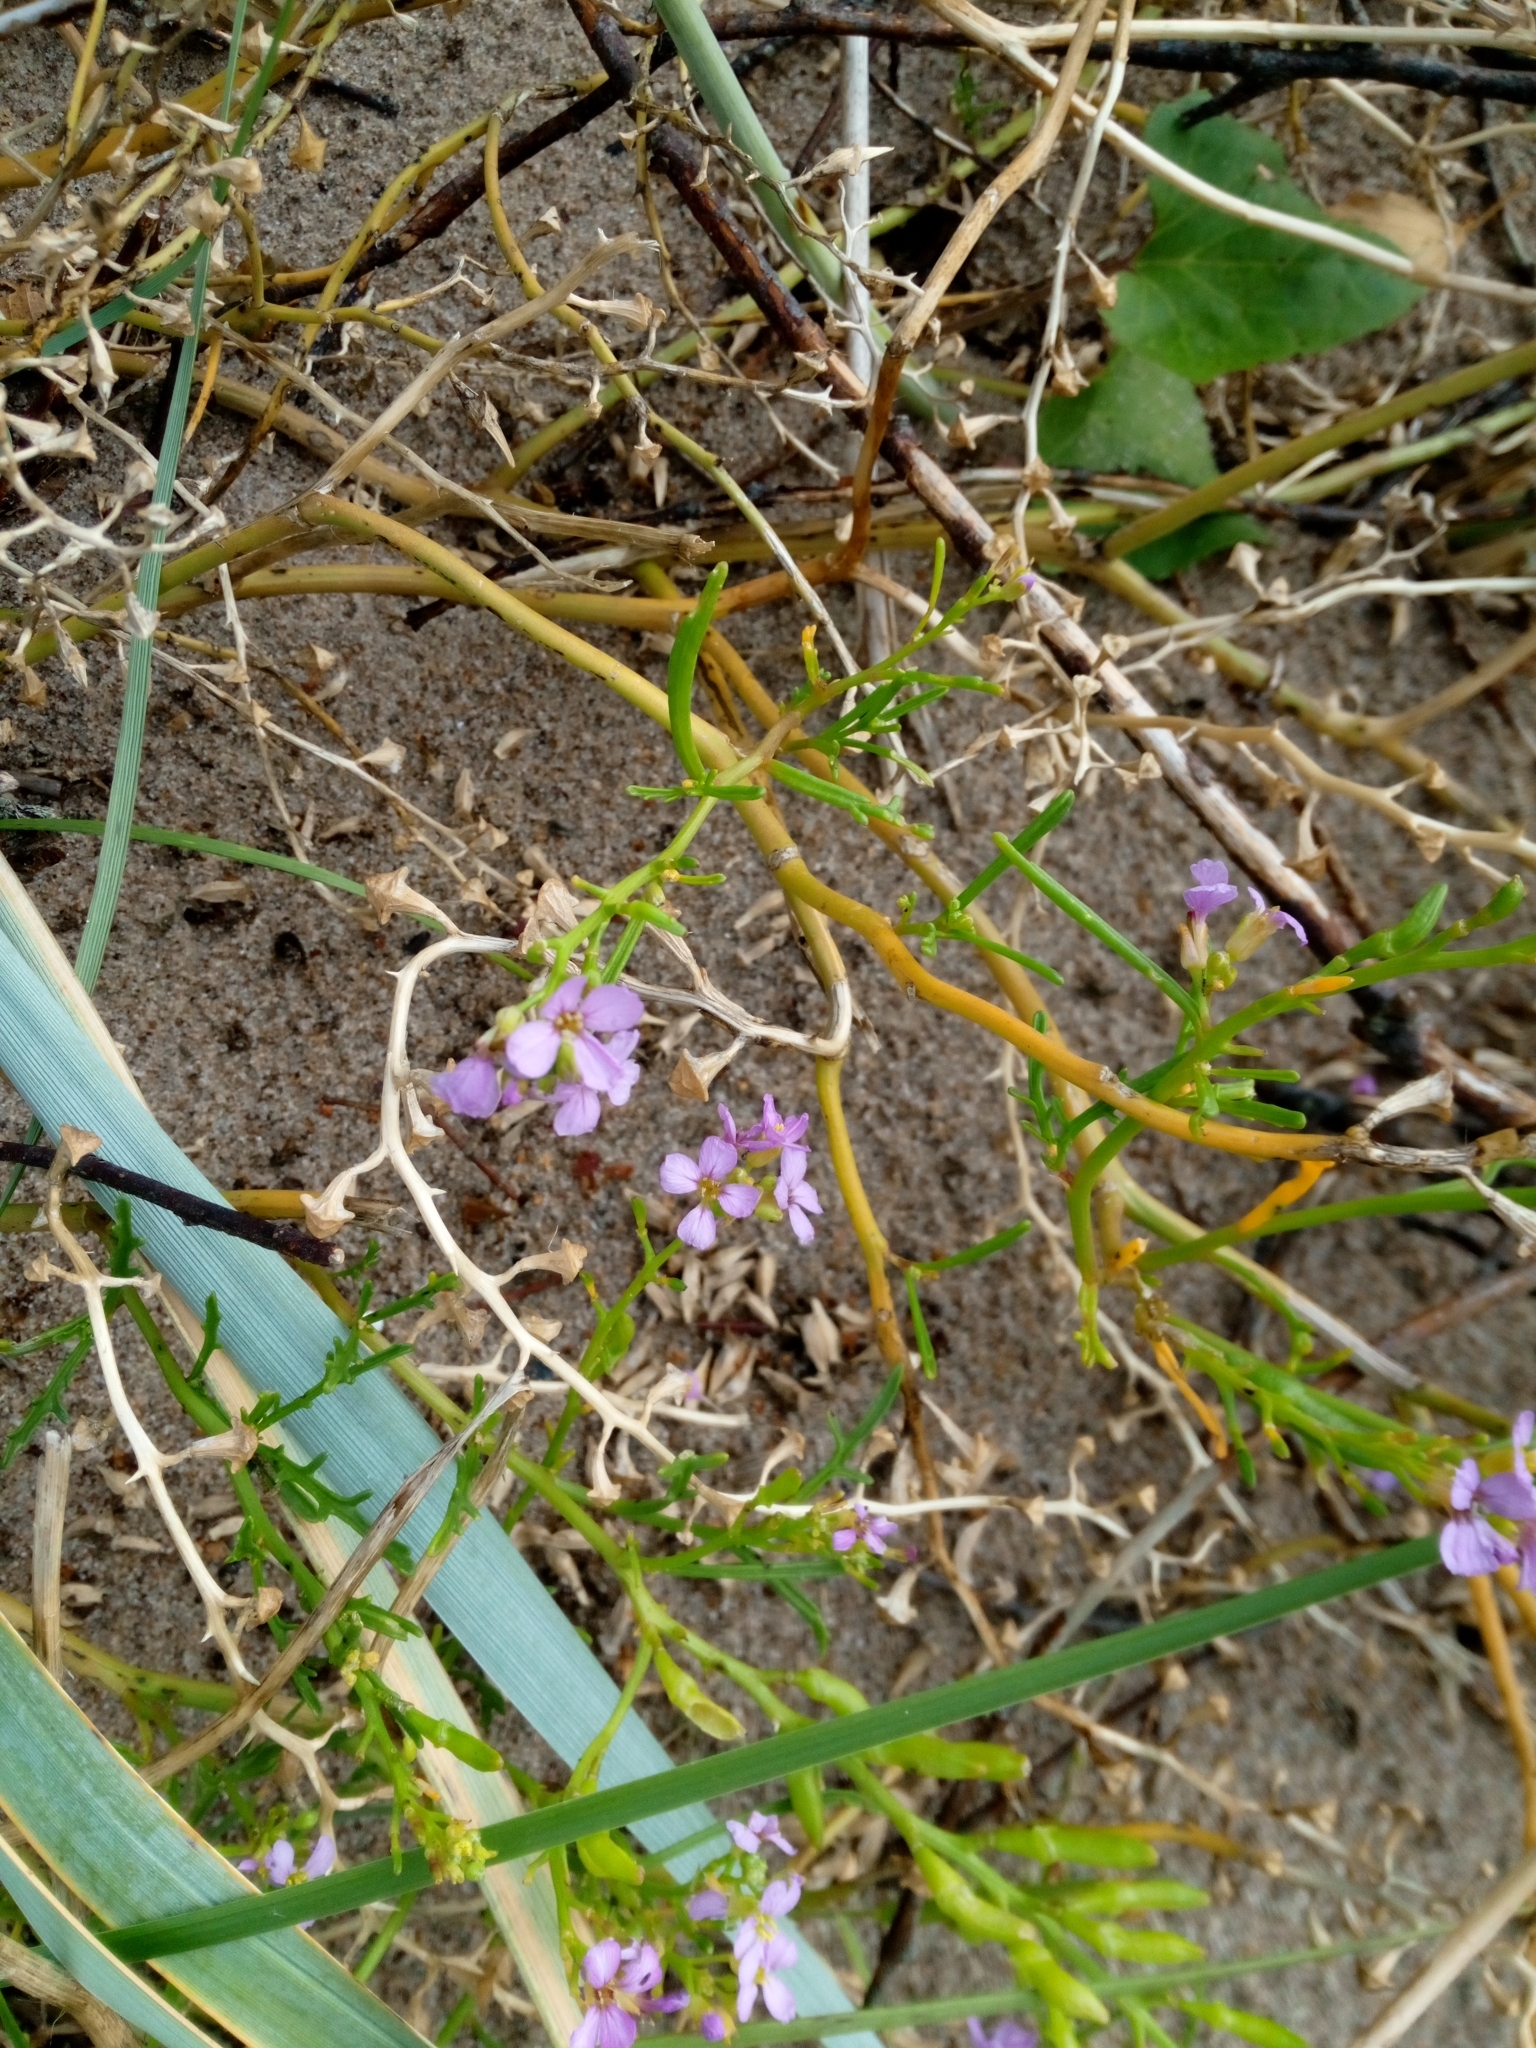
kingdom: Plantae
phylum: Tracheophyta
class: Magnoliopsida
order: Brassicales
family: Brassicaceae
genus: Cakile
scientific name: Cakile maritima
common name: Sea rocket
